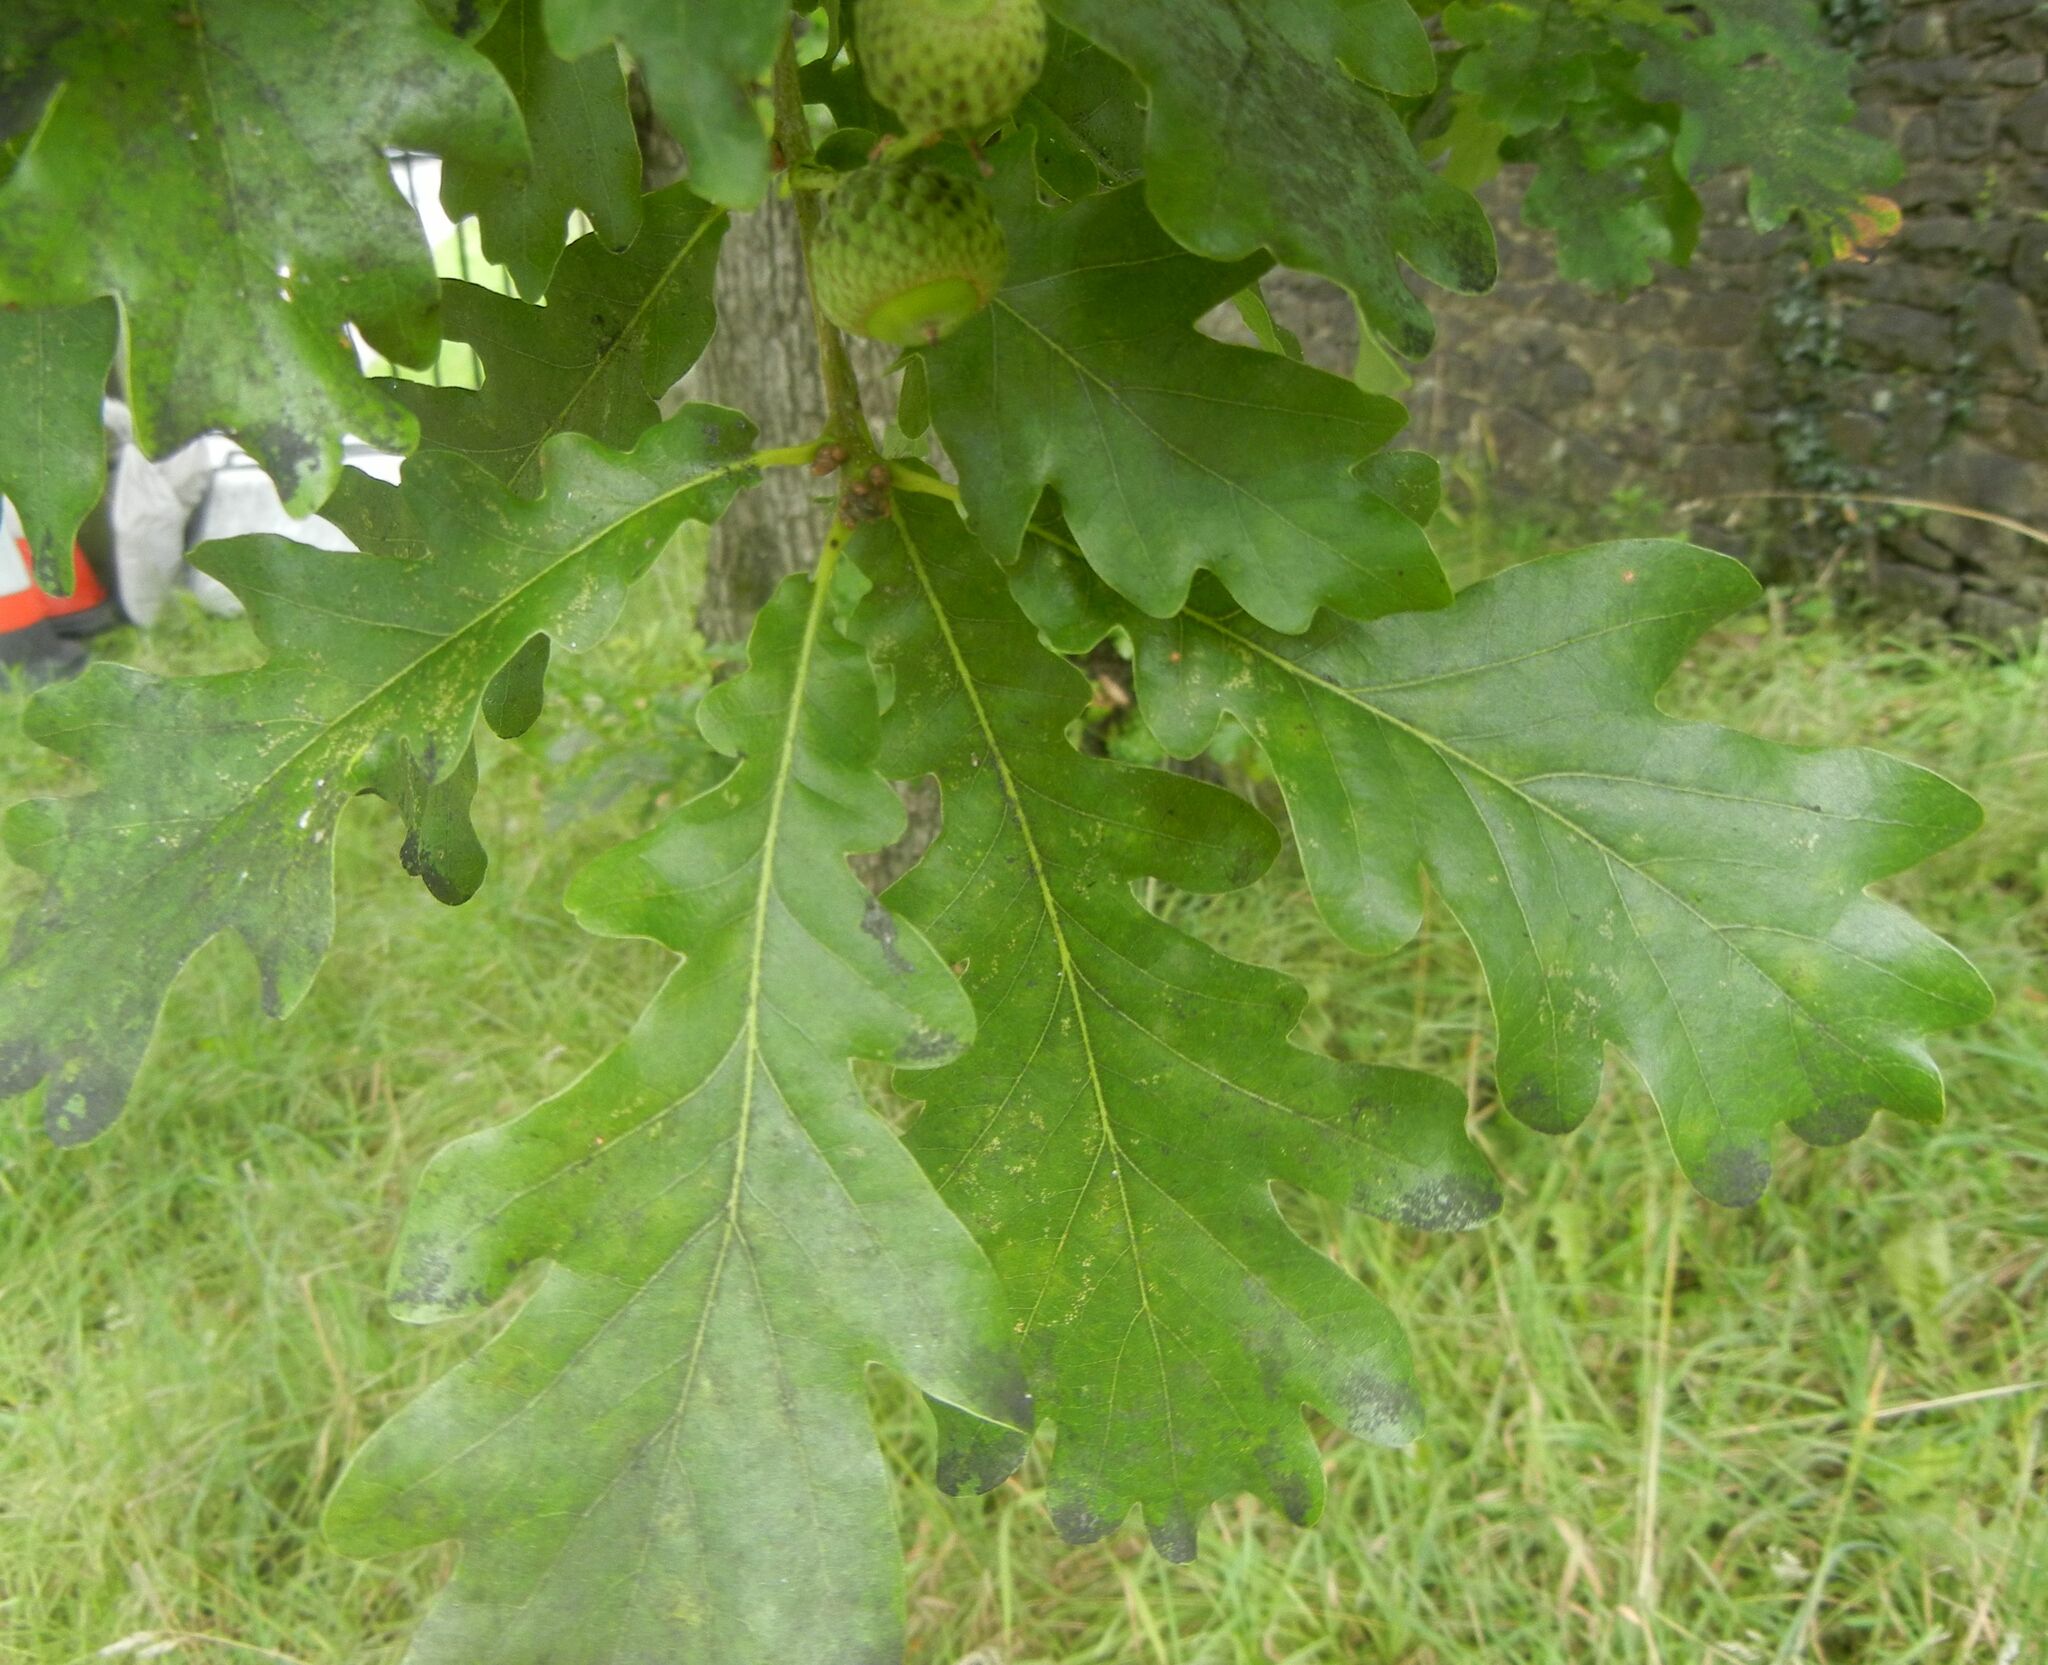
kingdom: Plantae
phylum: Tracheophyta
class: Magnoliopsida
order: Fagales
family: Fagaceae
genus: Quercus
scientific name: Quercus petraea
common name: Sessile oak
